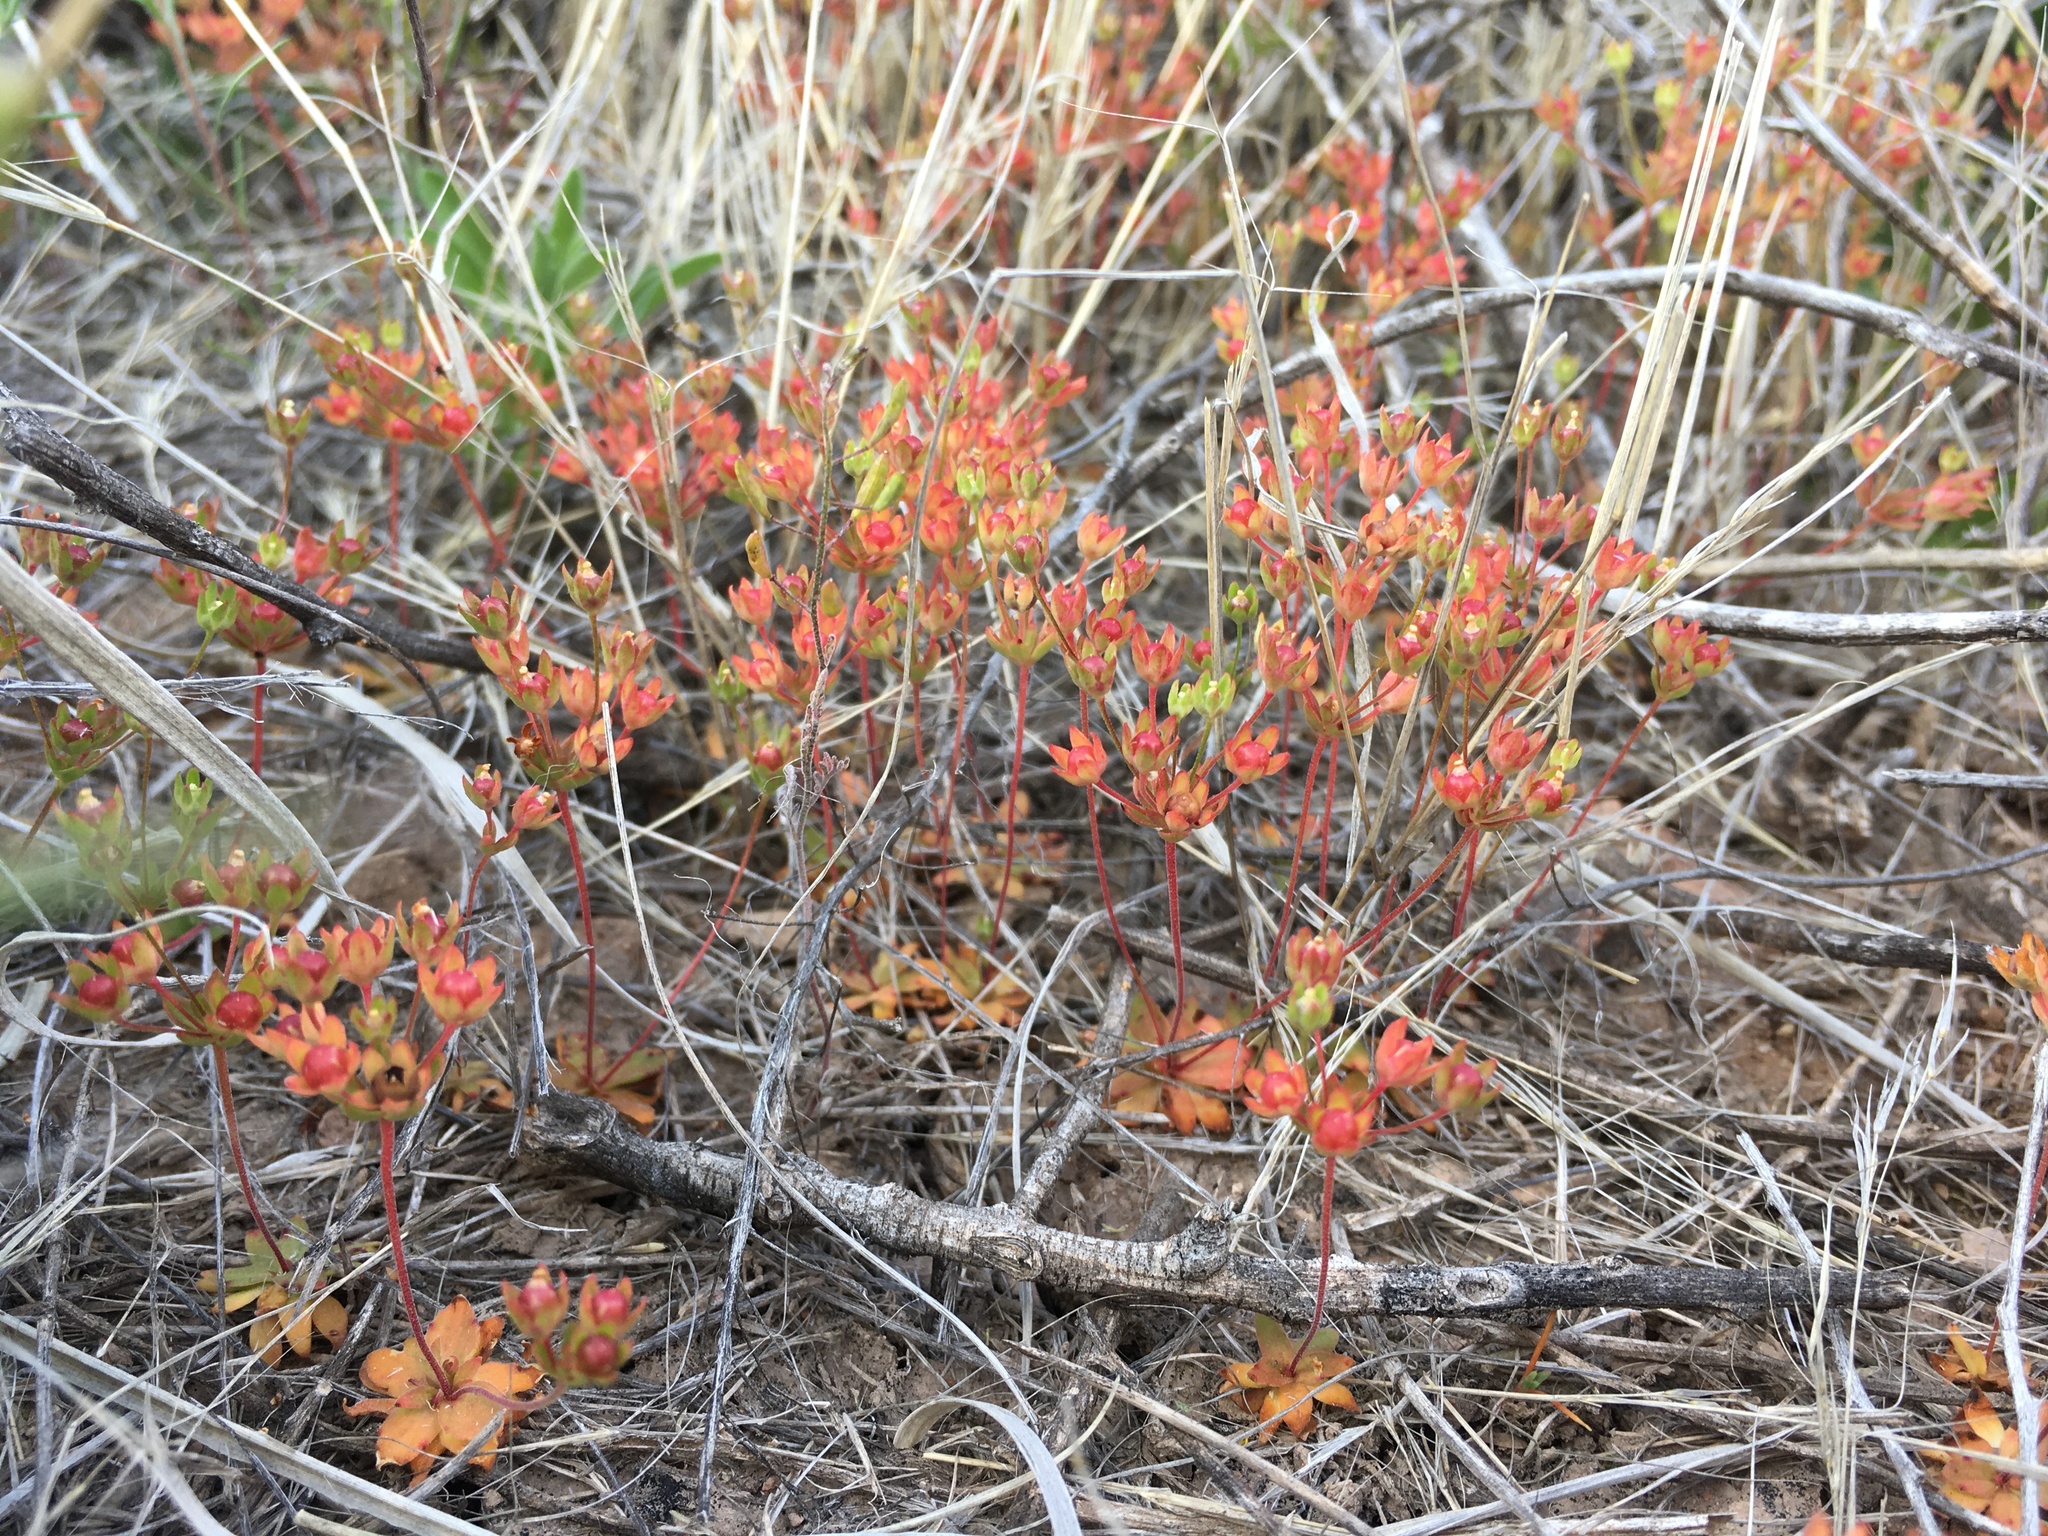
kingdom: Plantae
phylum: Tracheophyta
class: Magnoliopsida
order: Ericales
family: Primulaceae
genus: Androsace
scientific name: Androsace occidentalis
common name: West rock-jasmine
